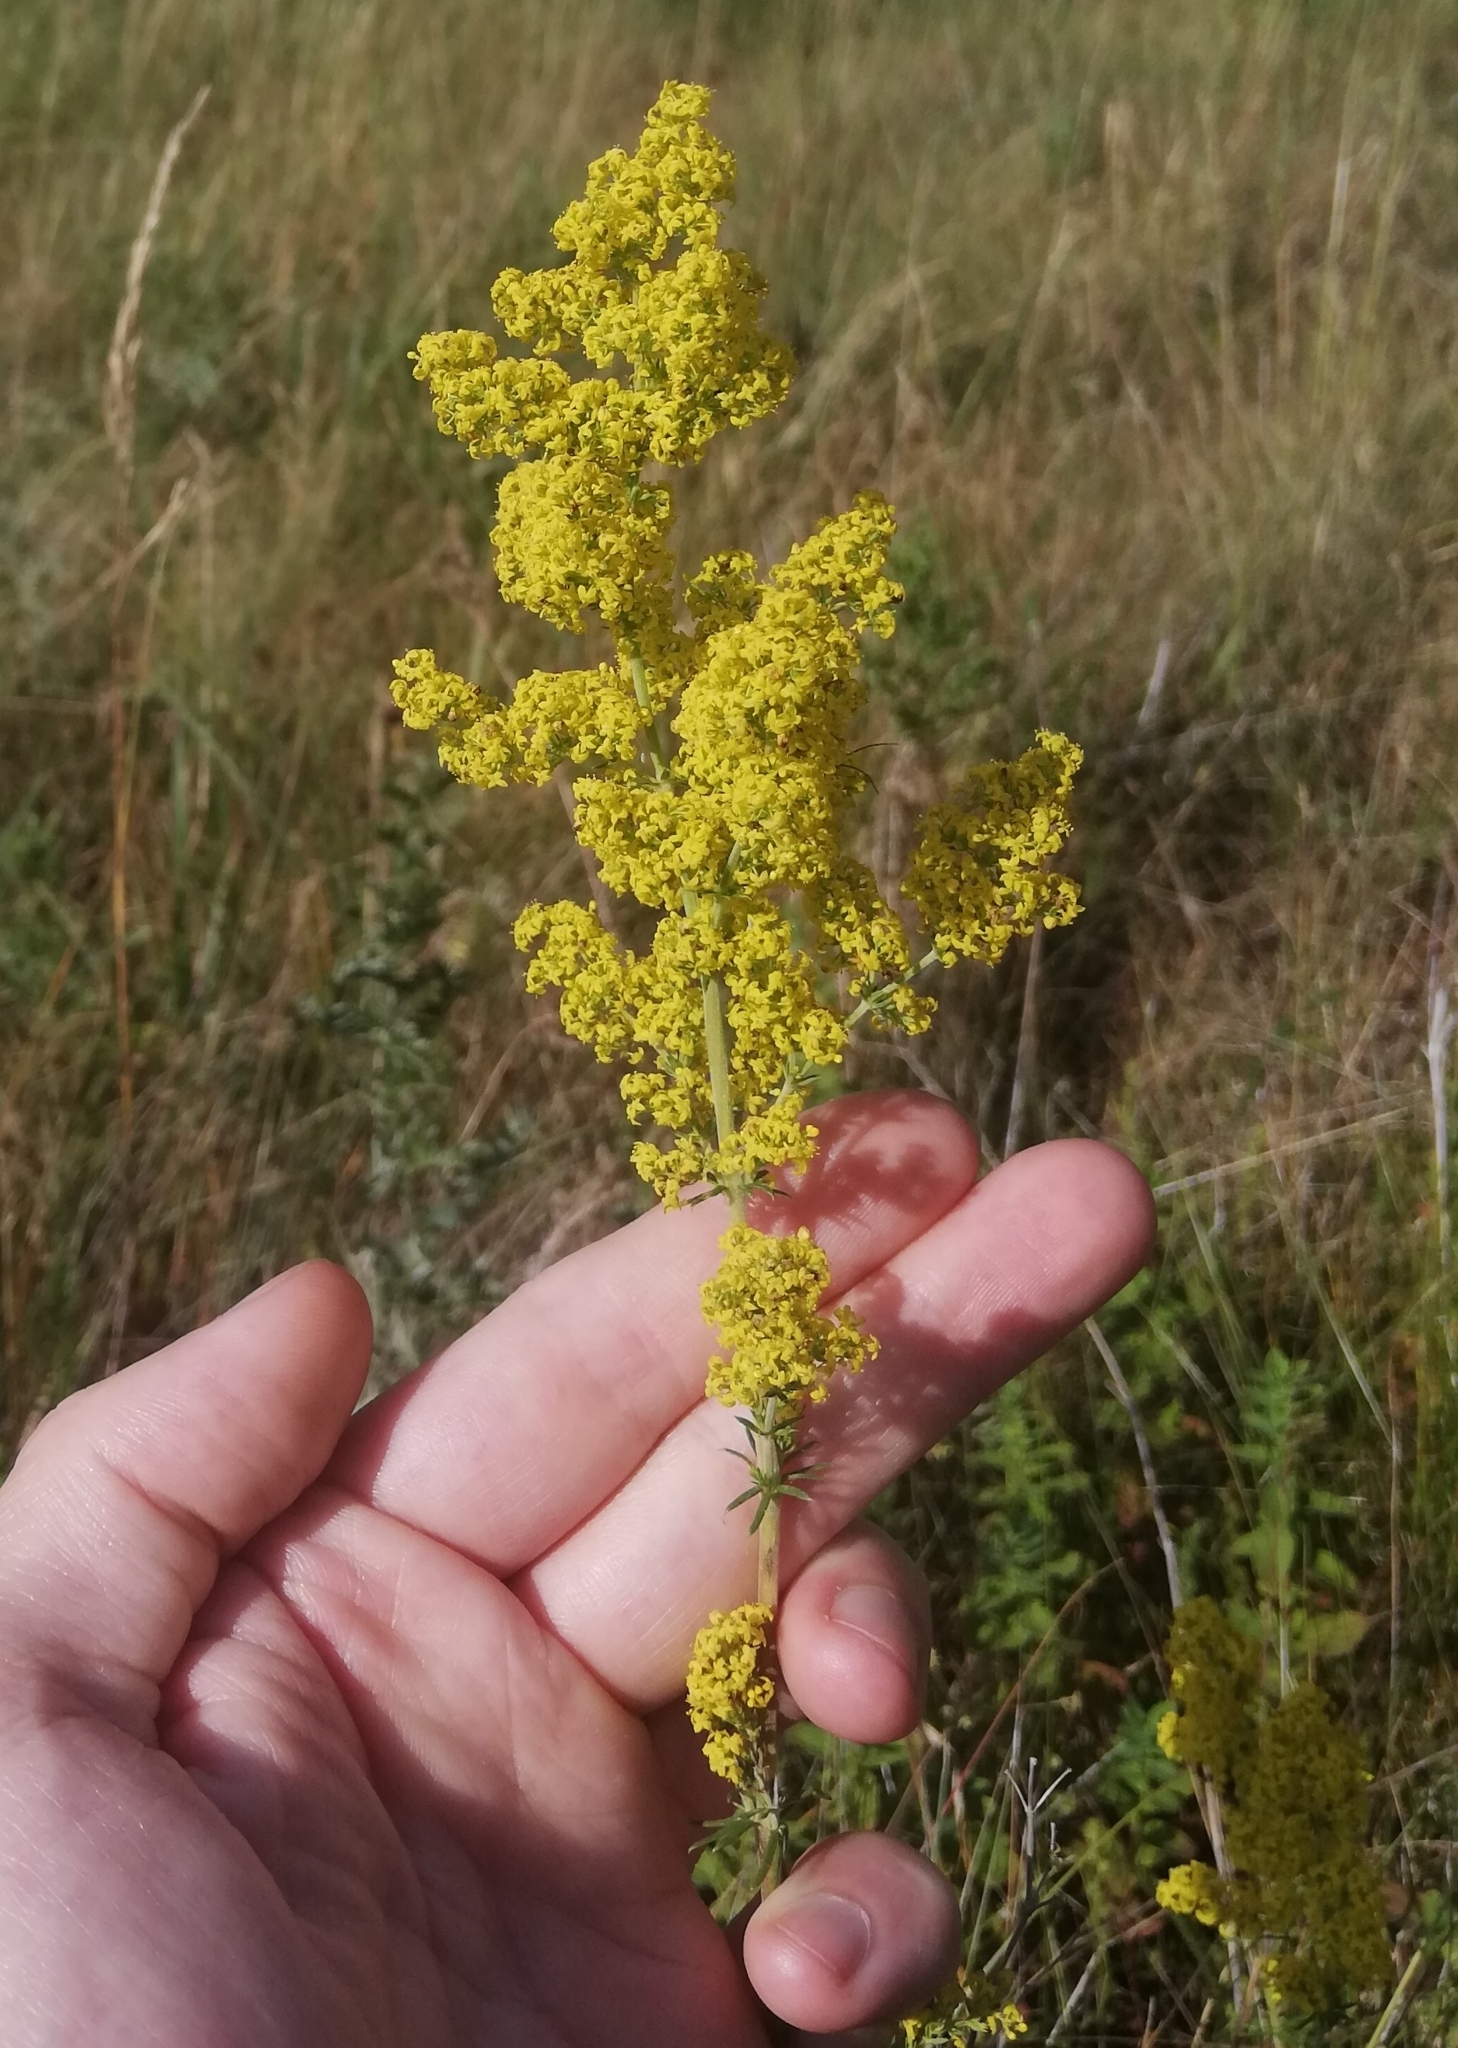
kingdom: Plantae
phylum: Tracheophyta
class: Magnoliopsida
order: Gentianales
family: Rubiaceae
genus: Galium
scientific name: Galium verum
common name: Lady's bedstraw
